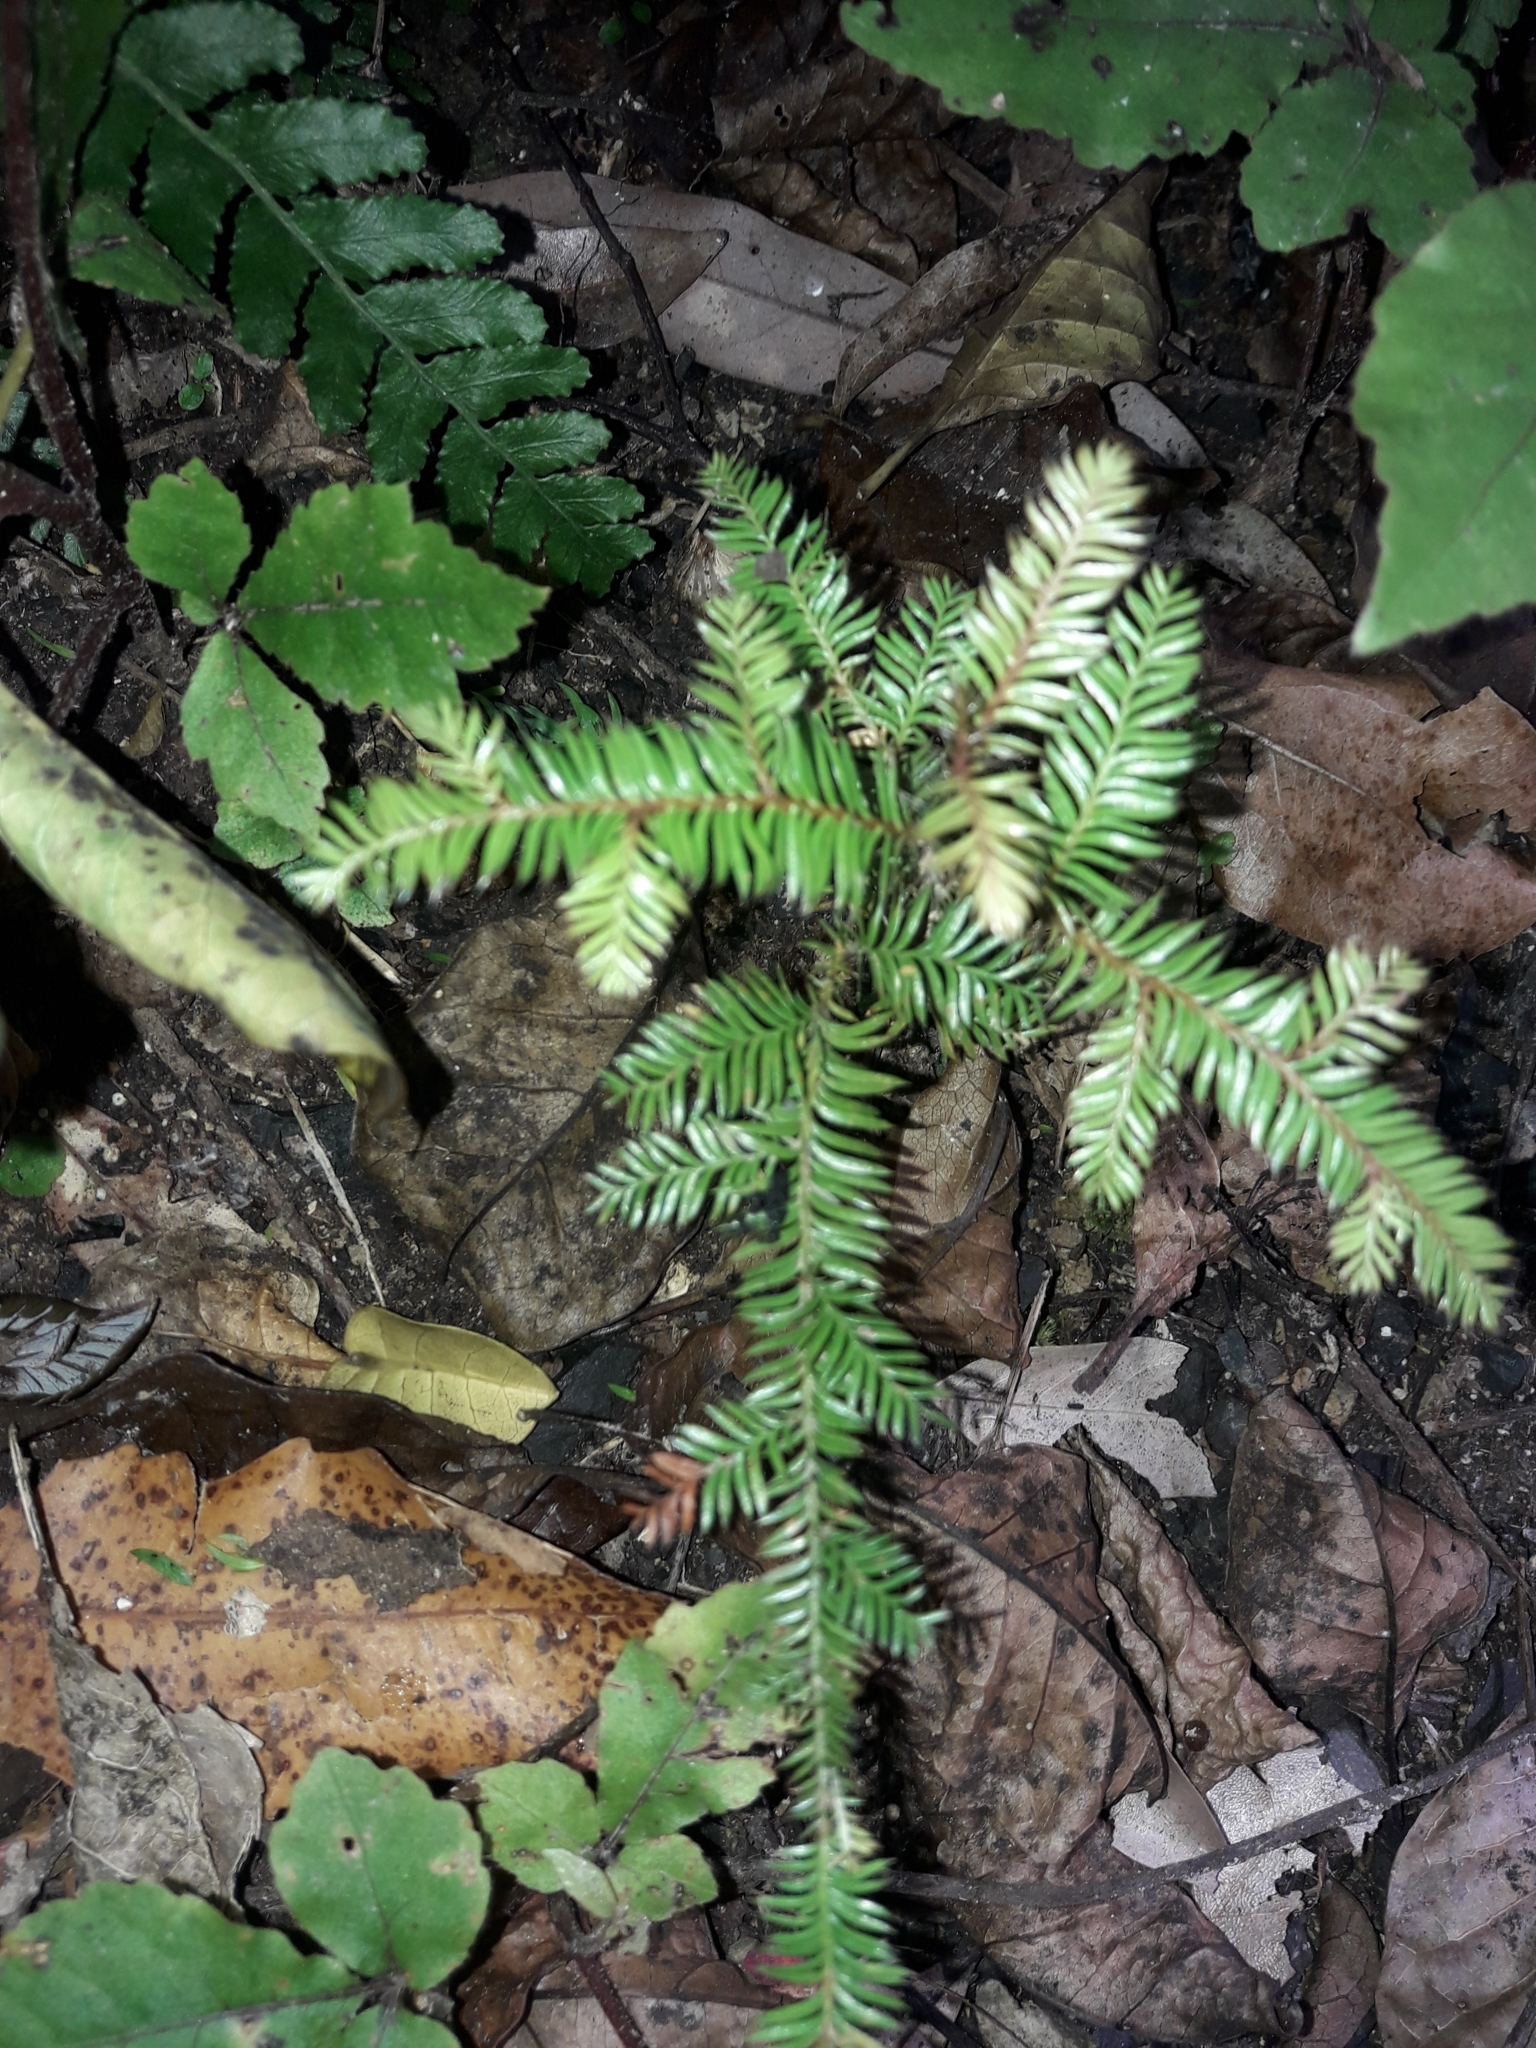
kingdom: Plantae
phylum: Tracheophyta
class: Pinopsida
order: Pinales
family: Podocarpaceae
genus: Dacrycarpus
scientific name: Dacrycarpus dacrydioides
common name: White pine
